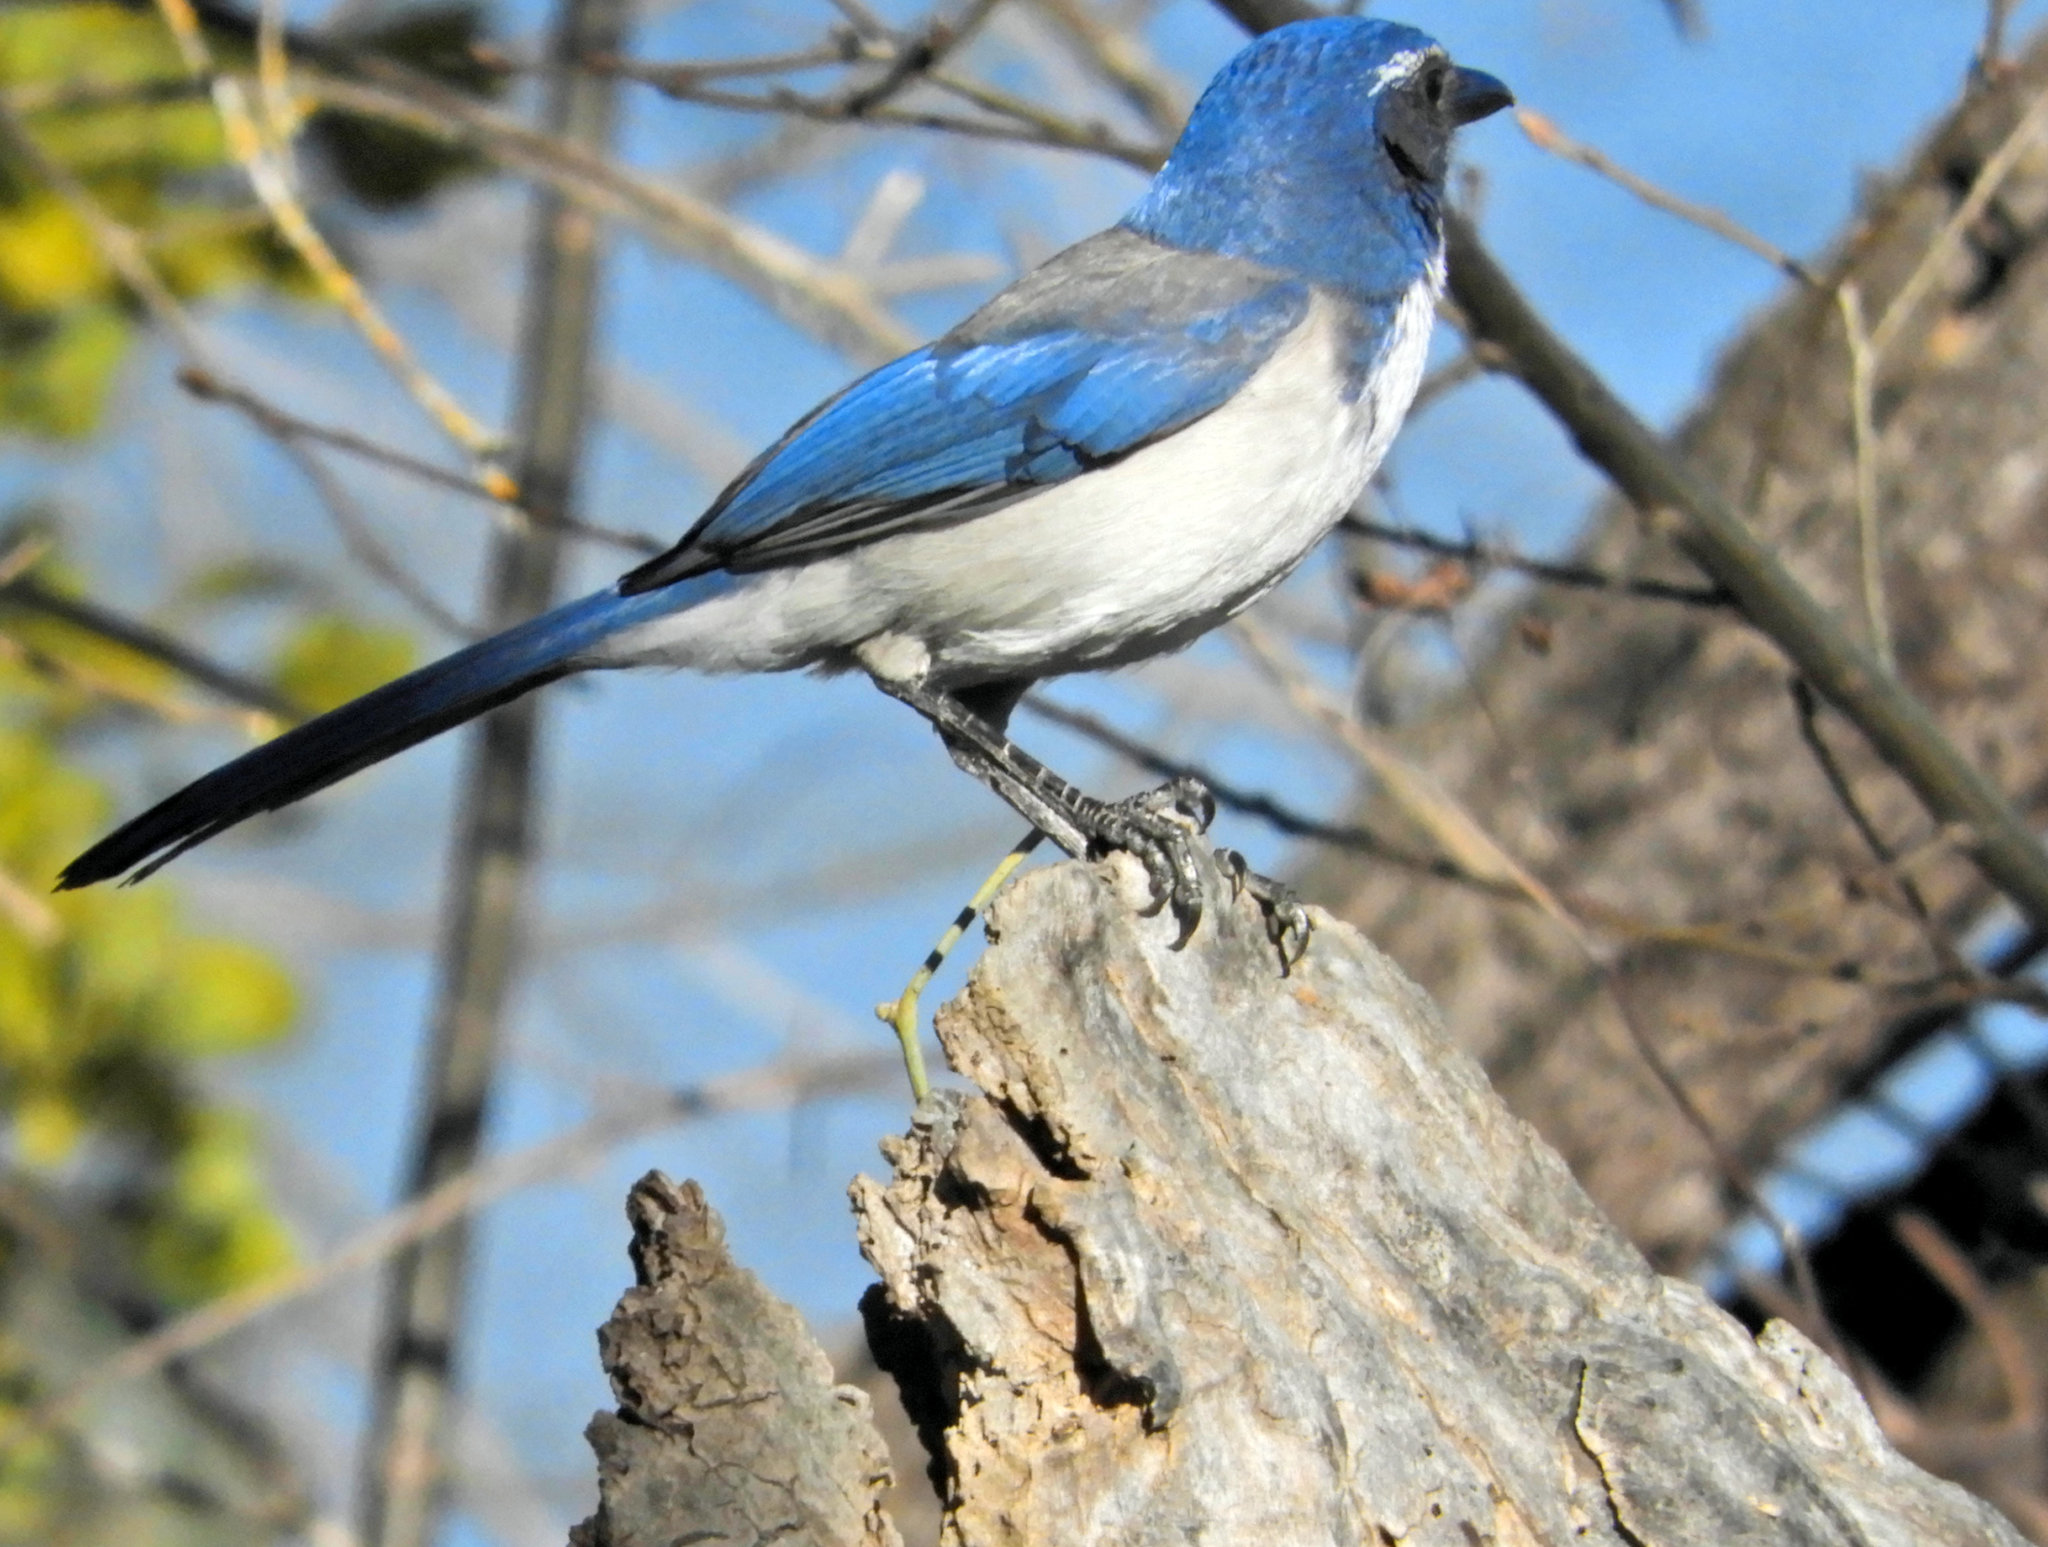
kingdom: Animalia
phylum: Chordata
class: Aves
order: Passeriformes
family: Corvidae
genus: Aphelocoma
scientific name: Aphelocoma californica
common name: California scrub-jay
